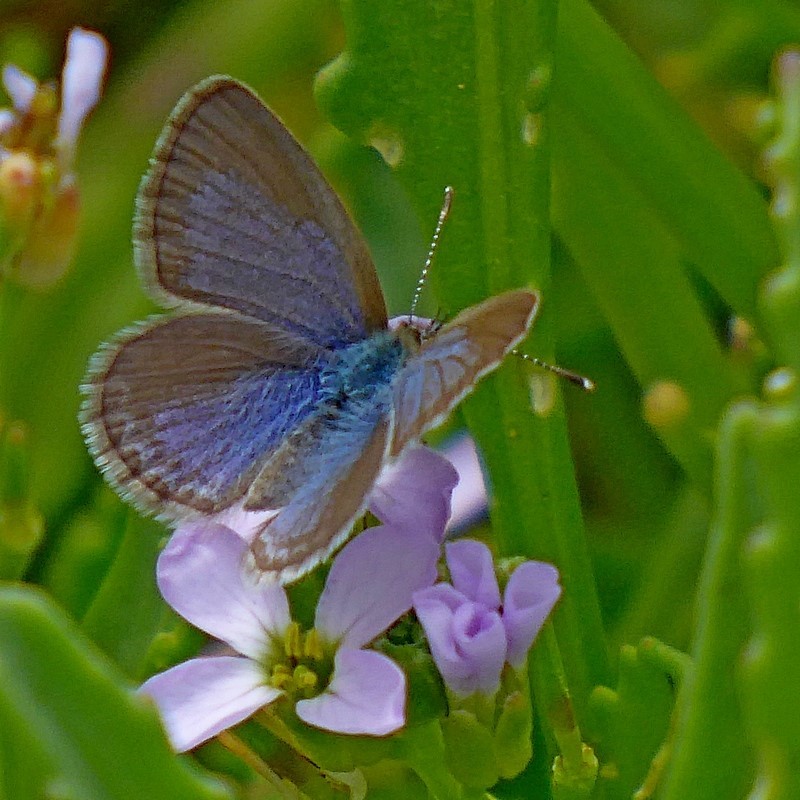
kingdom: Animalia
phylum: Arthropoda
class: Insecta
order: Lepidoptera
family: Lycaenidae
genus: Zizina
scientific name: Zizina labradus
